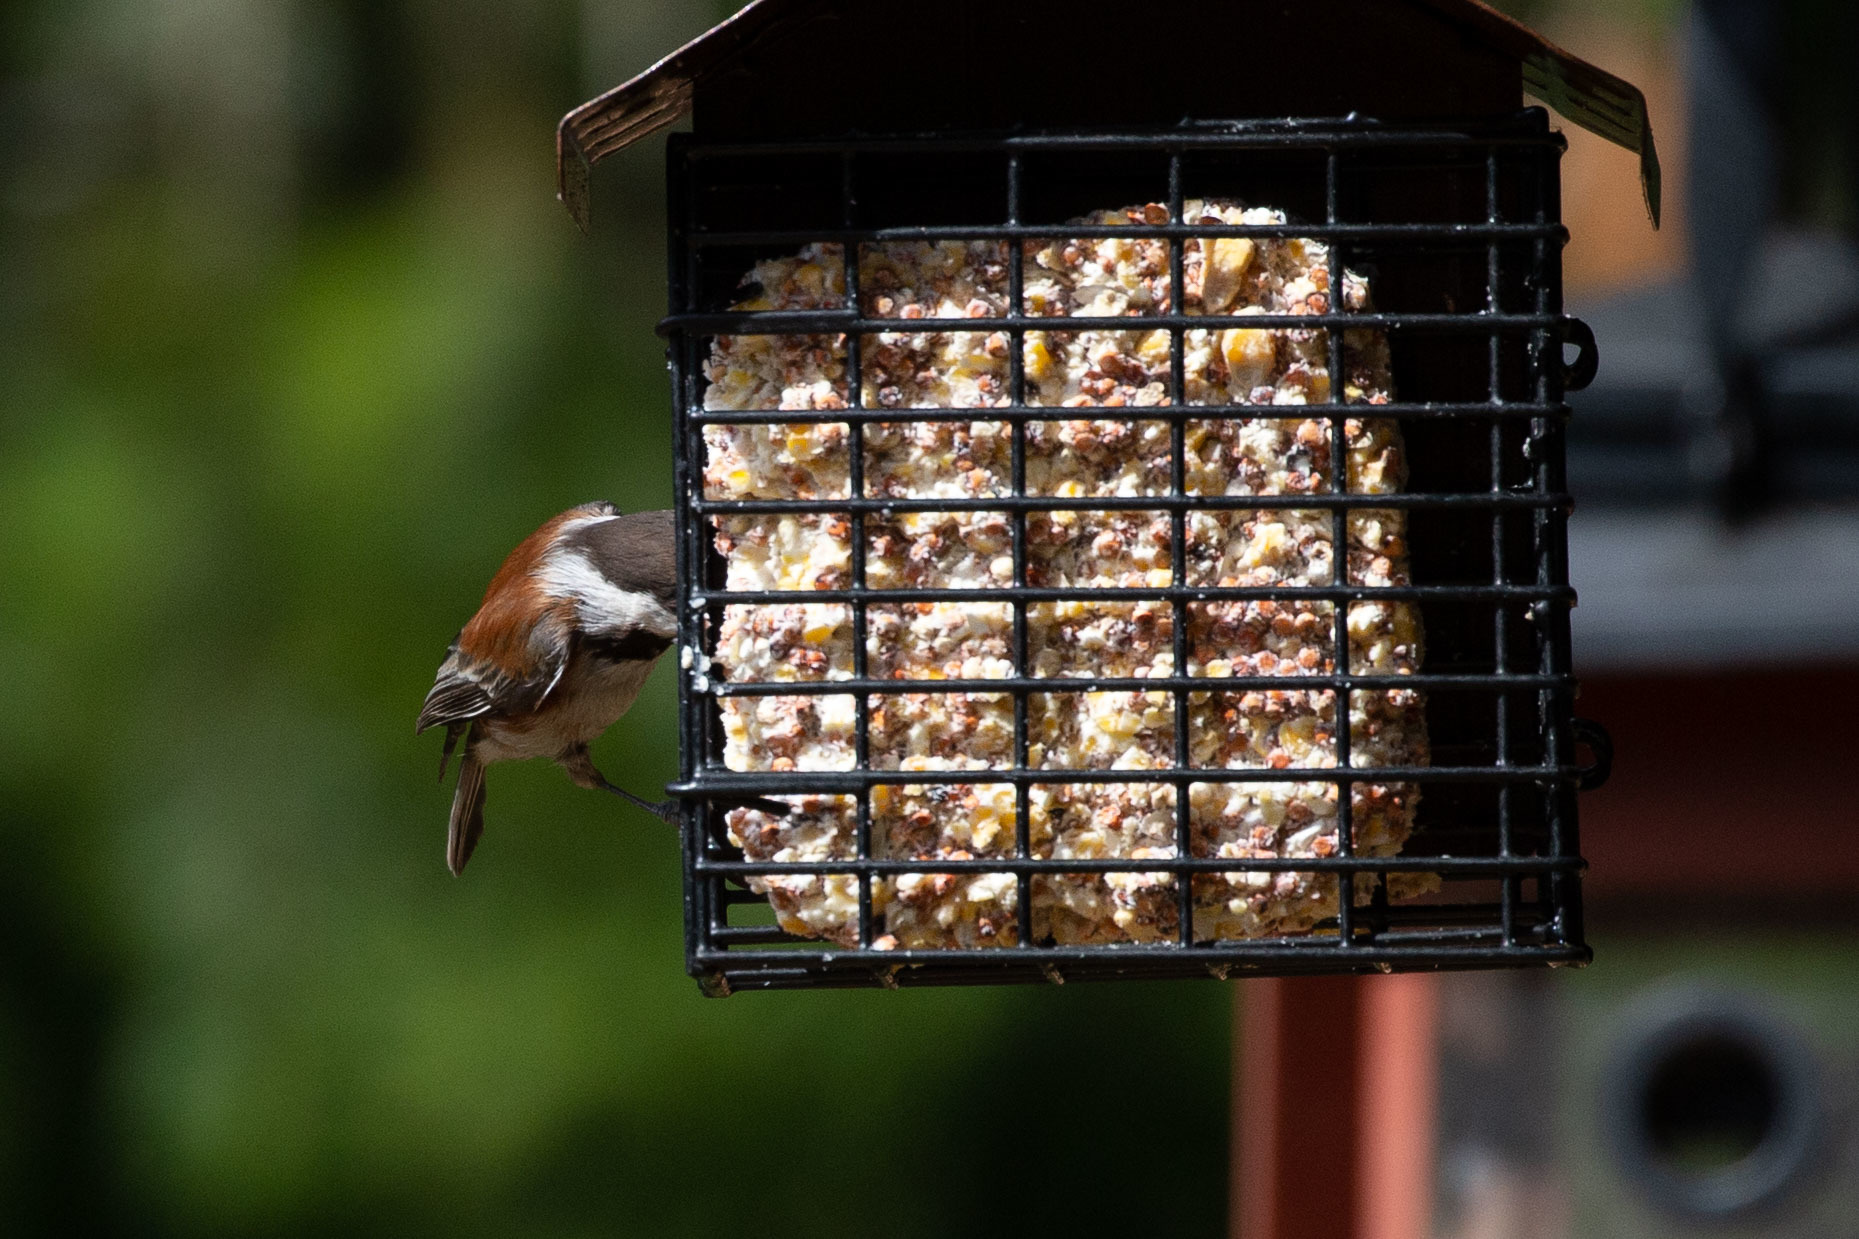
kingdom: Animalia
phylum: Chordata
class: Aves
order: Passeriformes
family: Paridae
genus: Poecile
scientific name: Poecile rufescens
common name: Chestnut-backed chickadee
